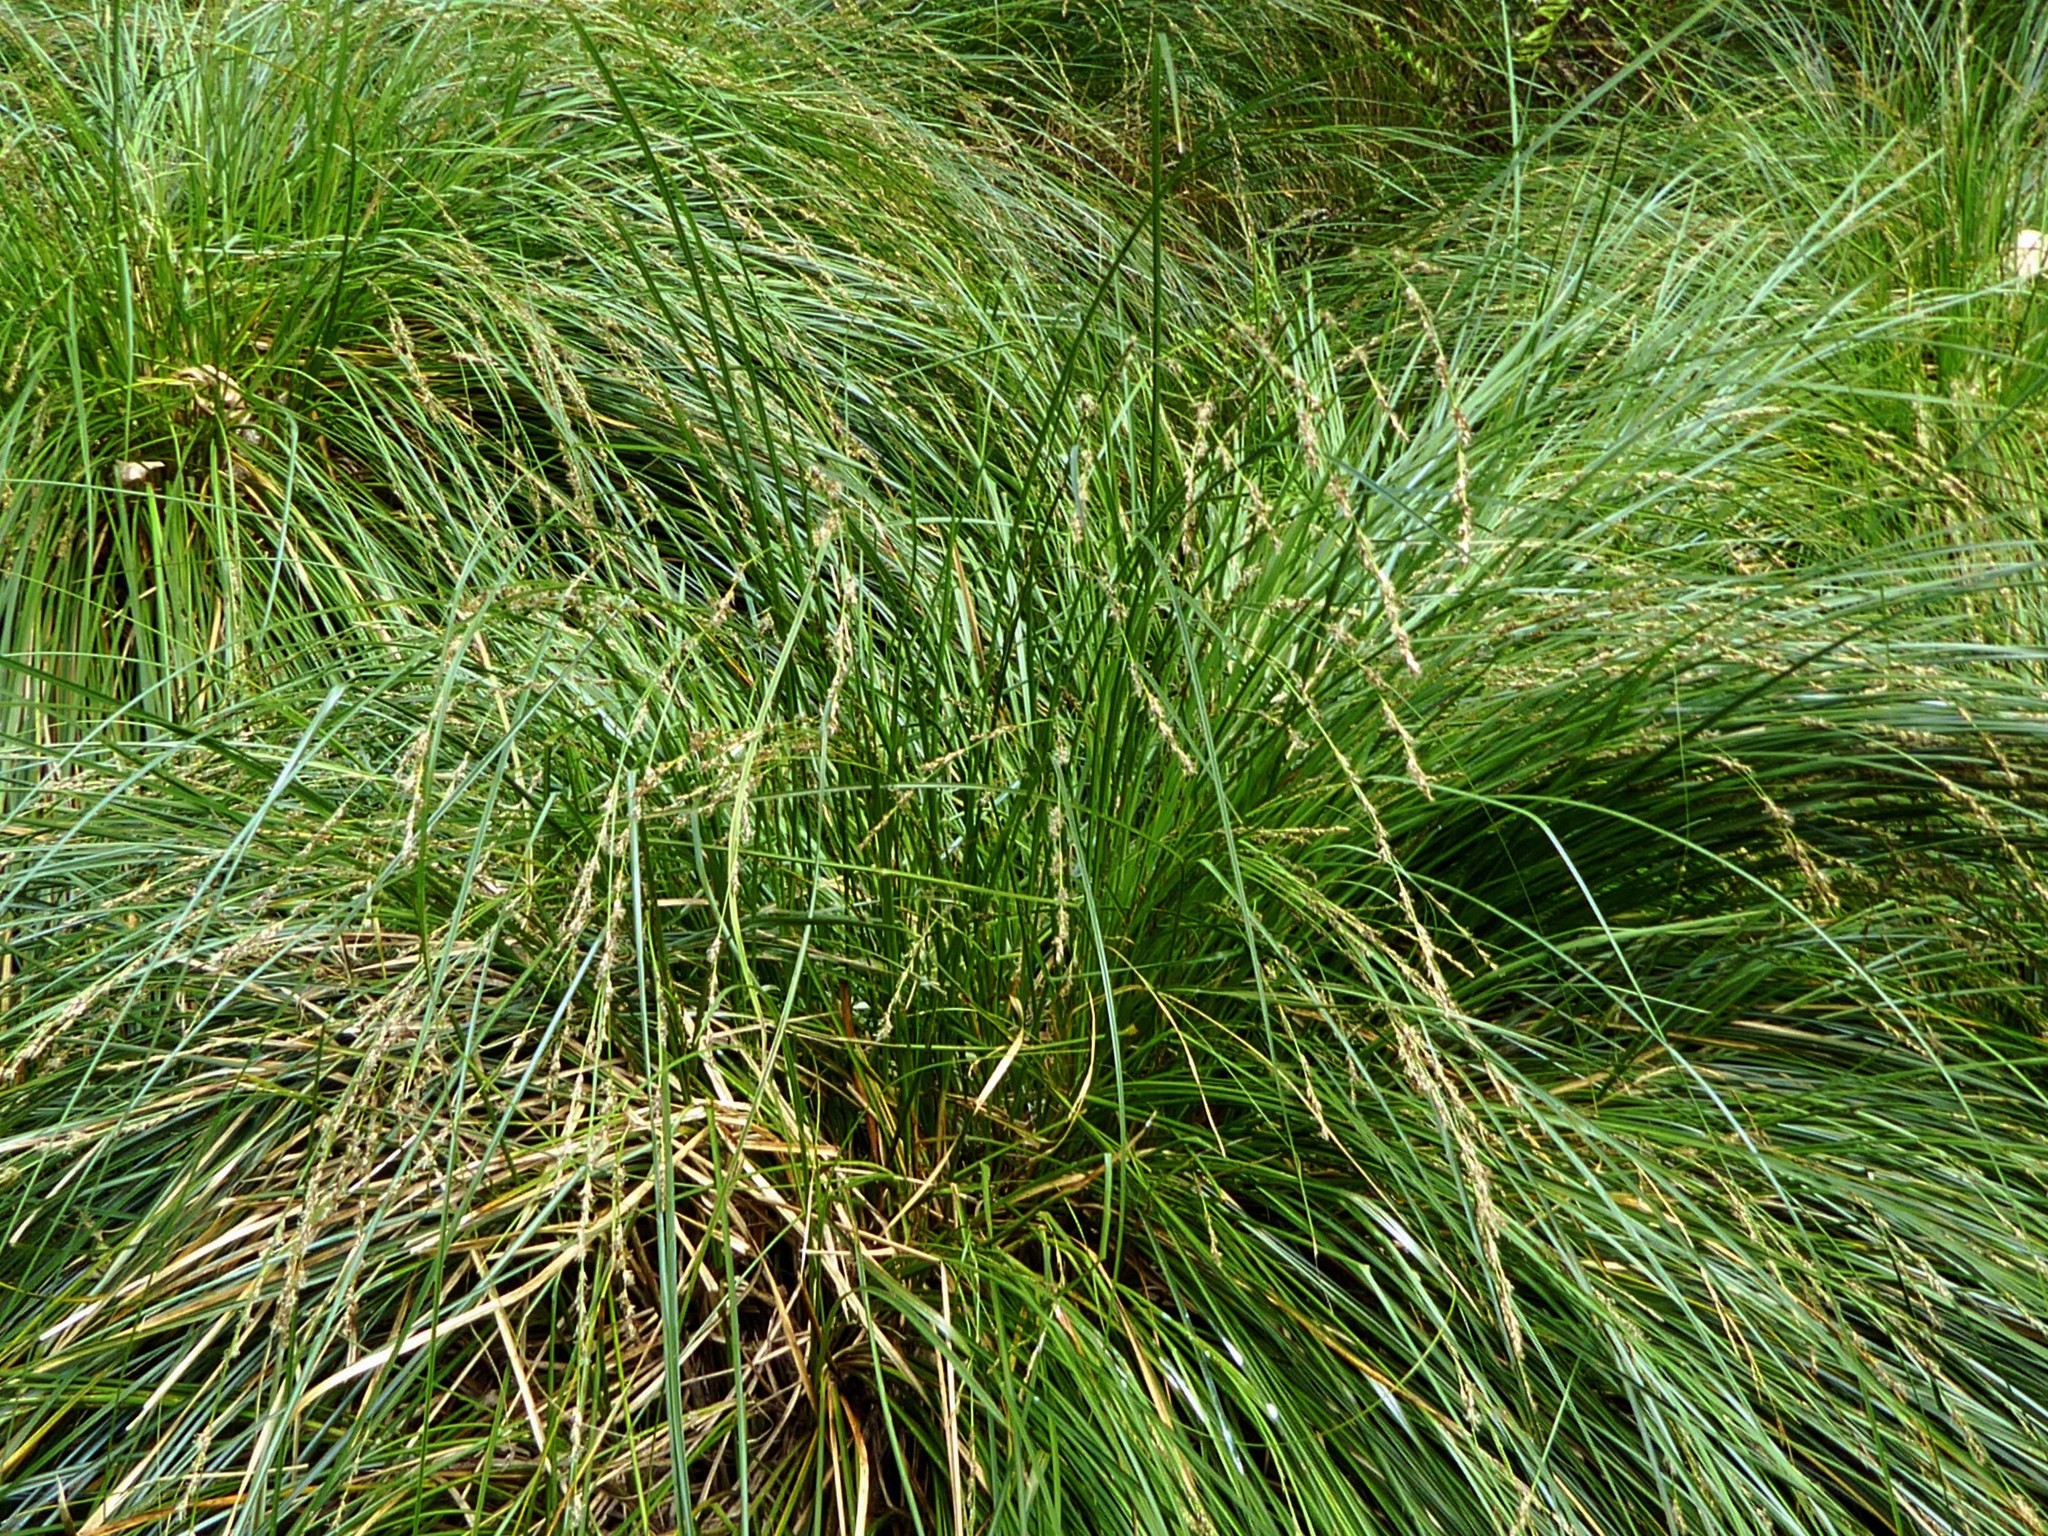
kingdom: Plantae
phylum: Tracheophyta
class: Liliopsida
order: Poales
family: Cyperaceae
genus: Carex
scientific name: Carex secta
